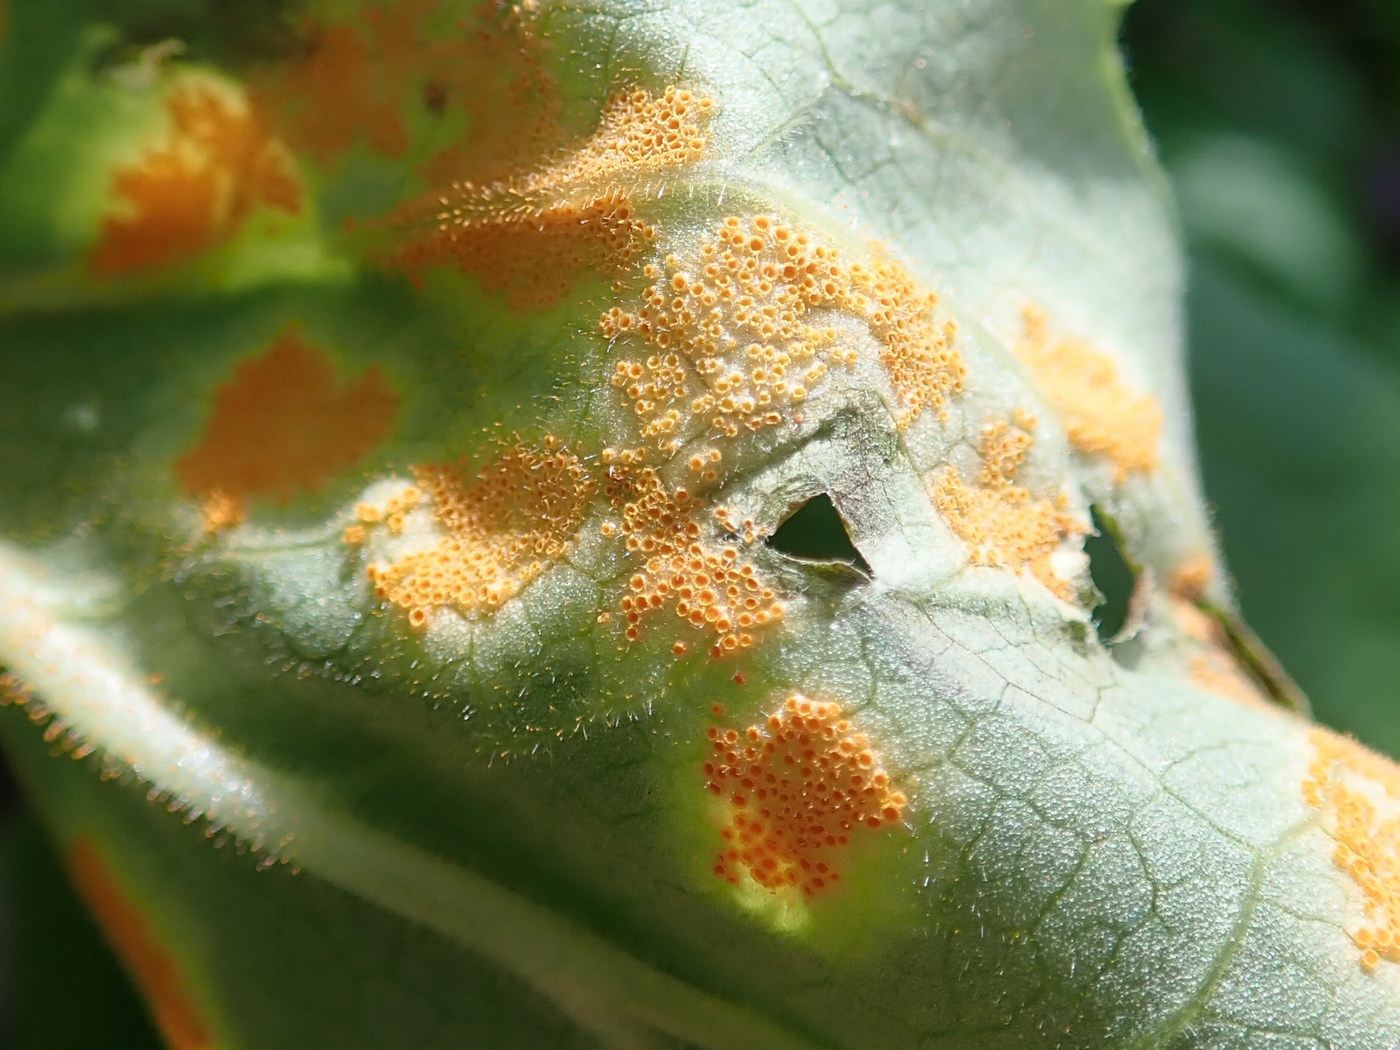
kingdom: Fungi
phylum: Basidiomycota
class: Pucciniomycetes
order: Pucciniales
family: Pucciniaceae
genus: Puccinia
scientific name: Puccinia podophylli
